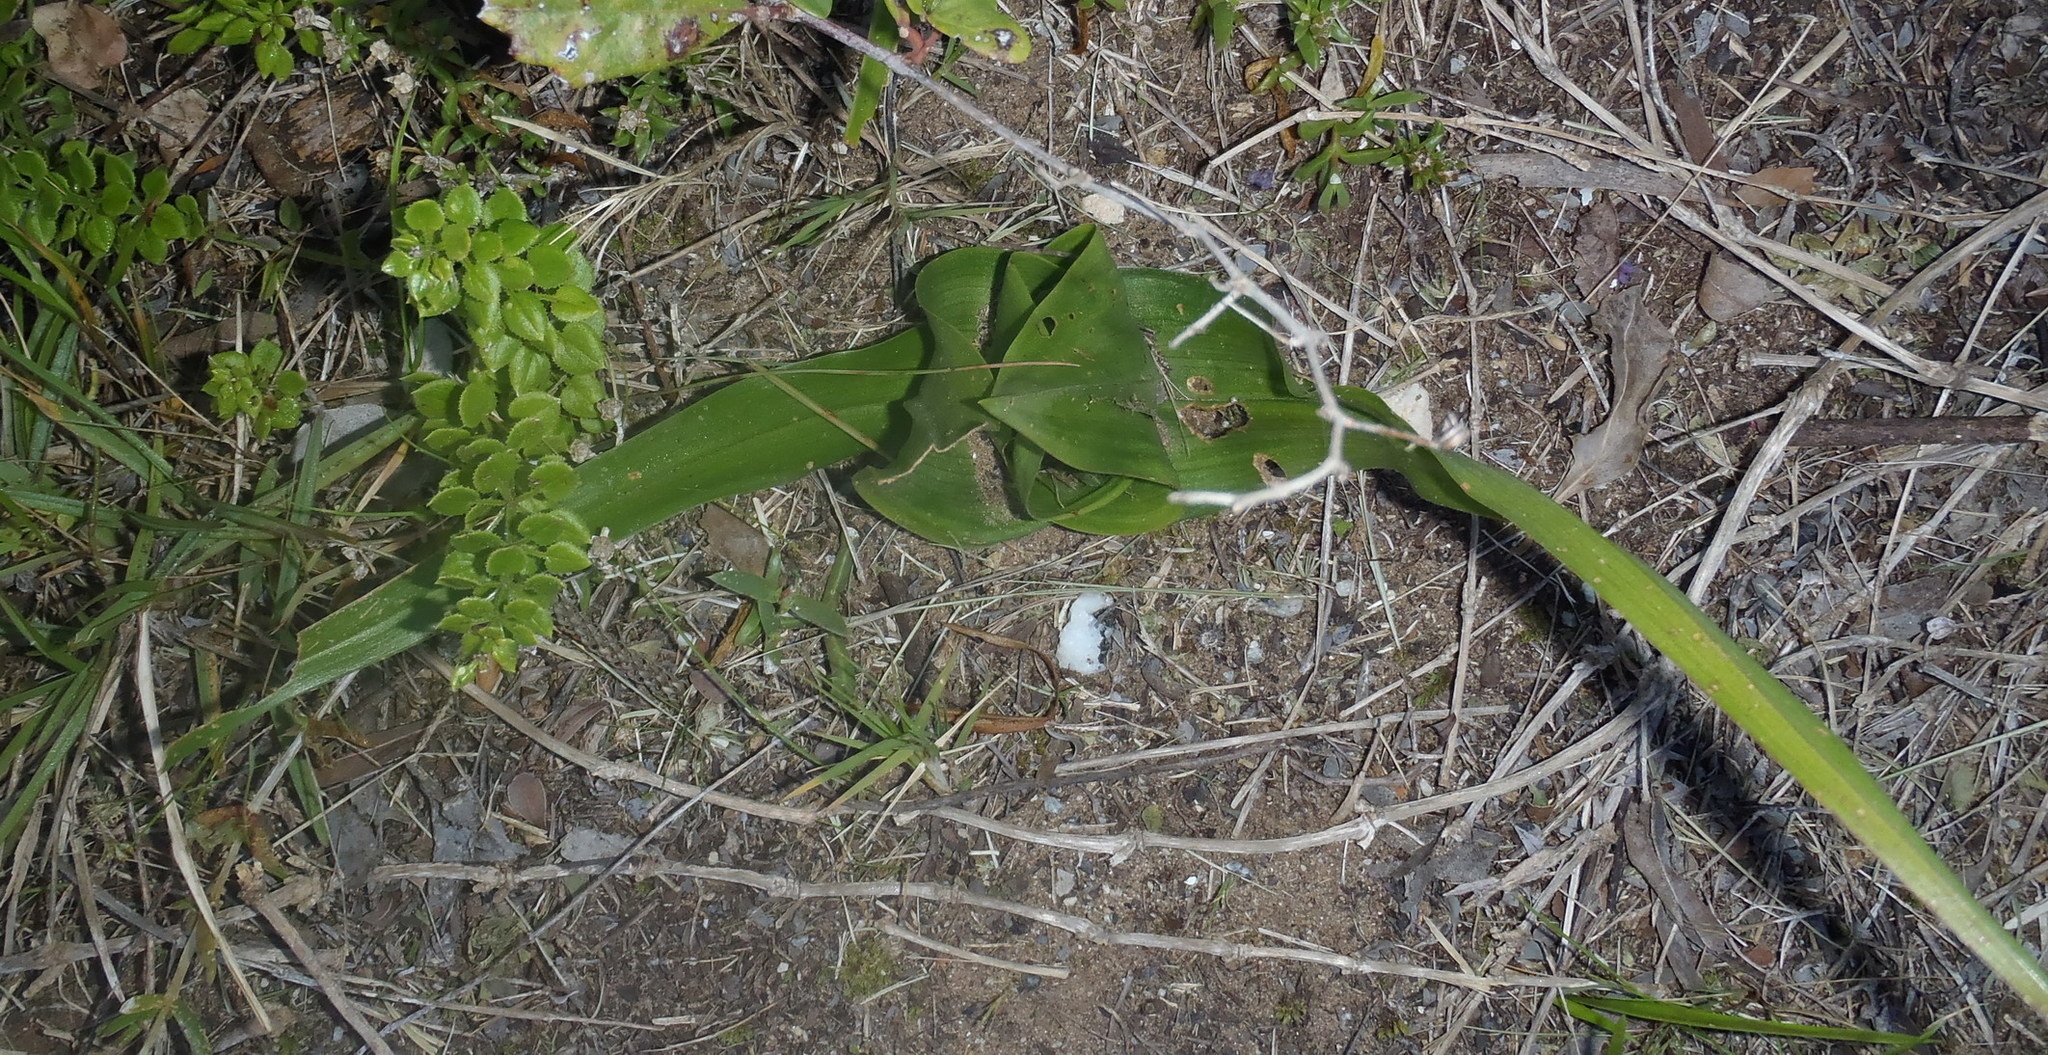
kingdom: Plantae
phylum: Tracheophyta
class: Liliopsida
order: Liliales
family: Colchicaceae
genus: Colchicum
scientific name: Colchicum eucomoides
